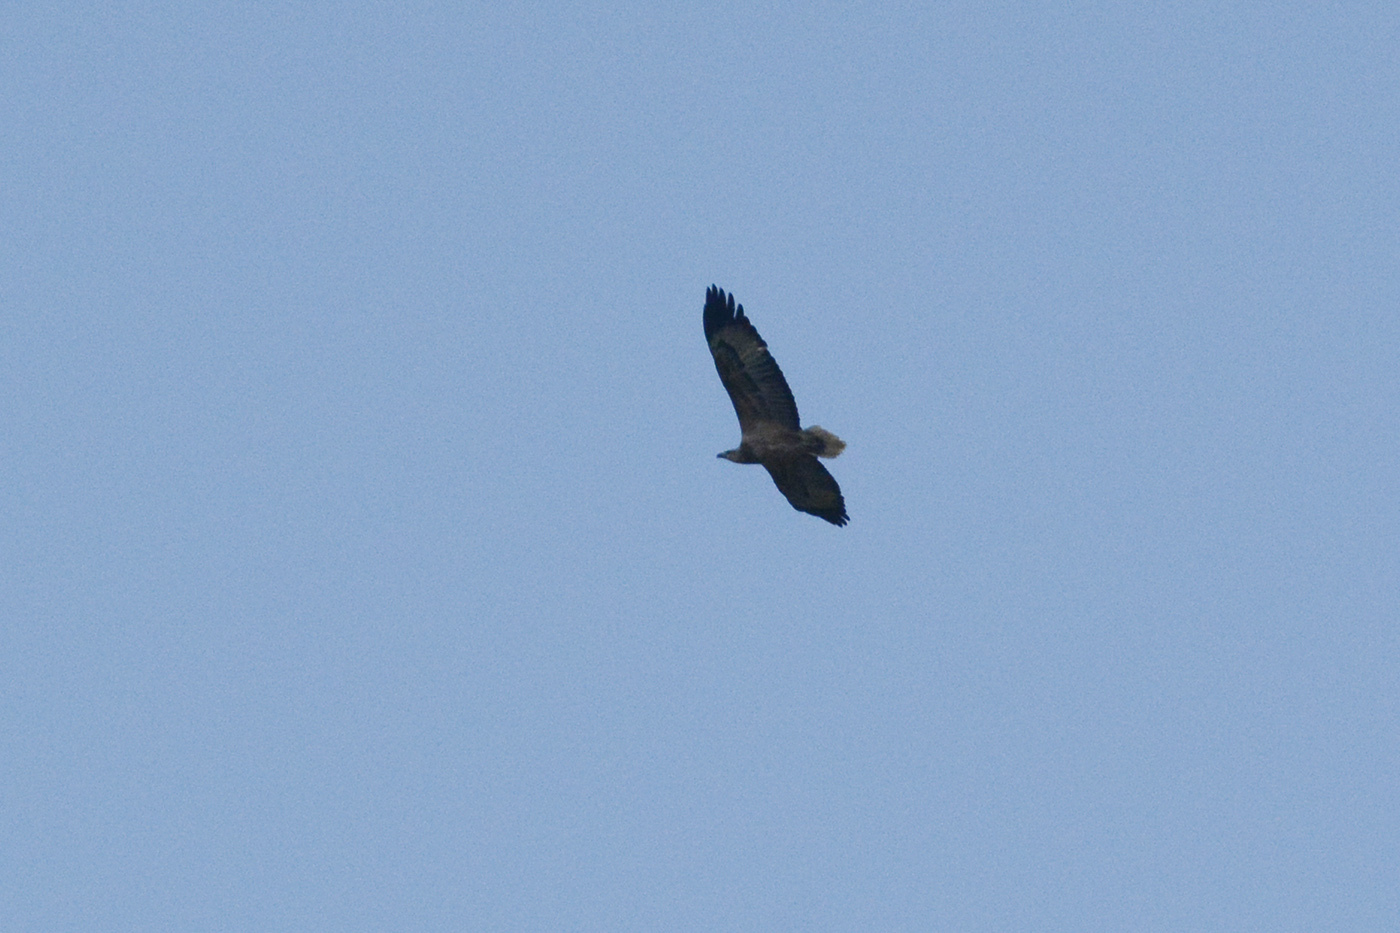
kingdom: Animalia
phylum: Chordata
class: Aves
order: Accipitriformes
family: Accipitridae
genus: Haliaeetus
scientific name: Haliaeetus leucogaster
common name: White-bellied sea eagle
